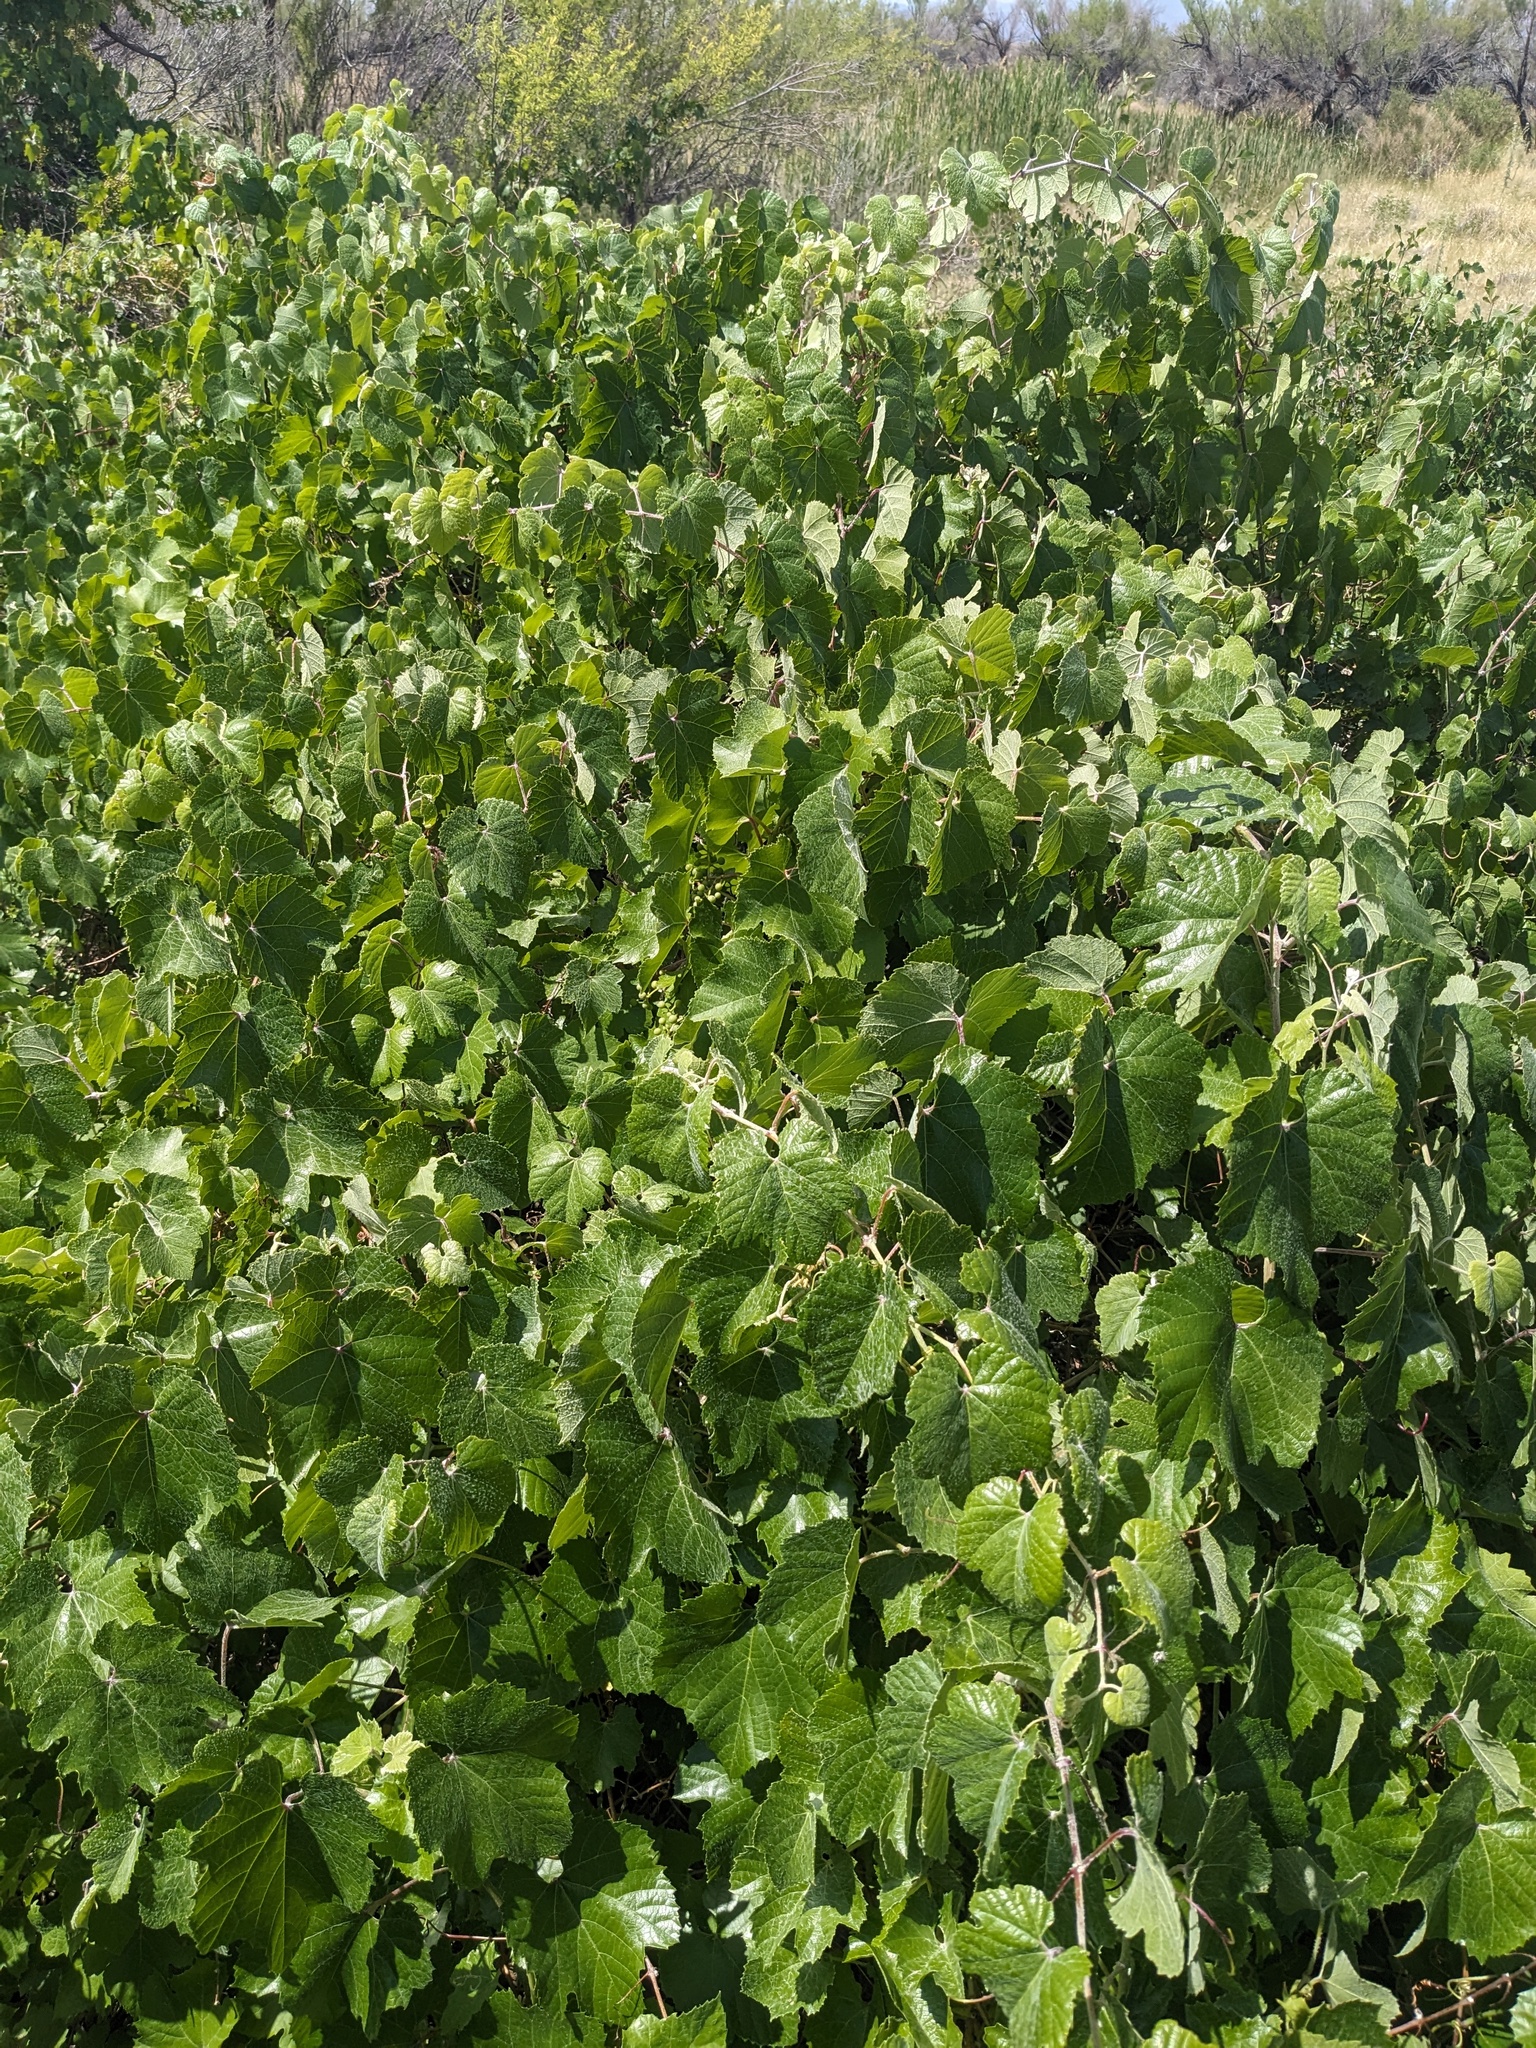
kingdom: Plantae
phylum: Tracheophyta
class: Magnoliopsida
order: Vitales
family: Vitaceae
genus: Vitis
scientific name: Vitis arizonica
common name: Canyon grape
